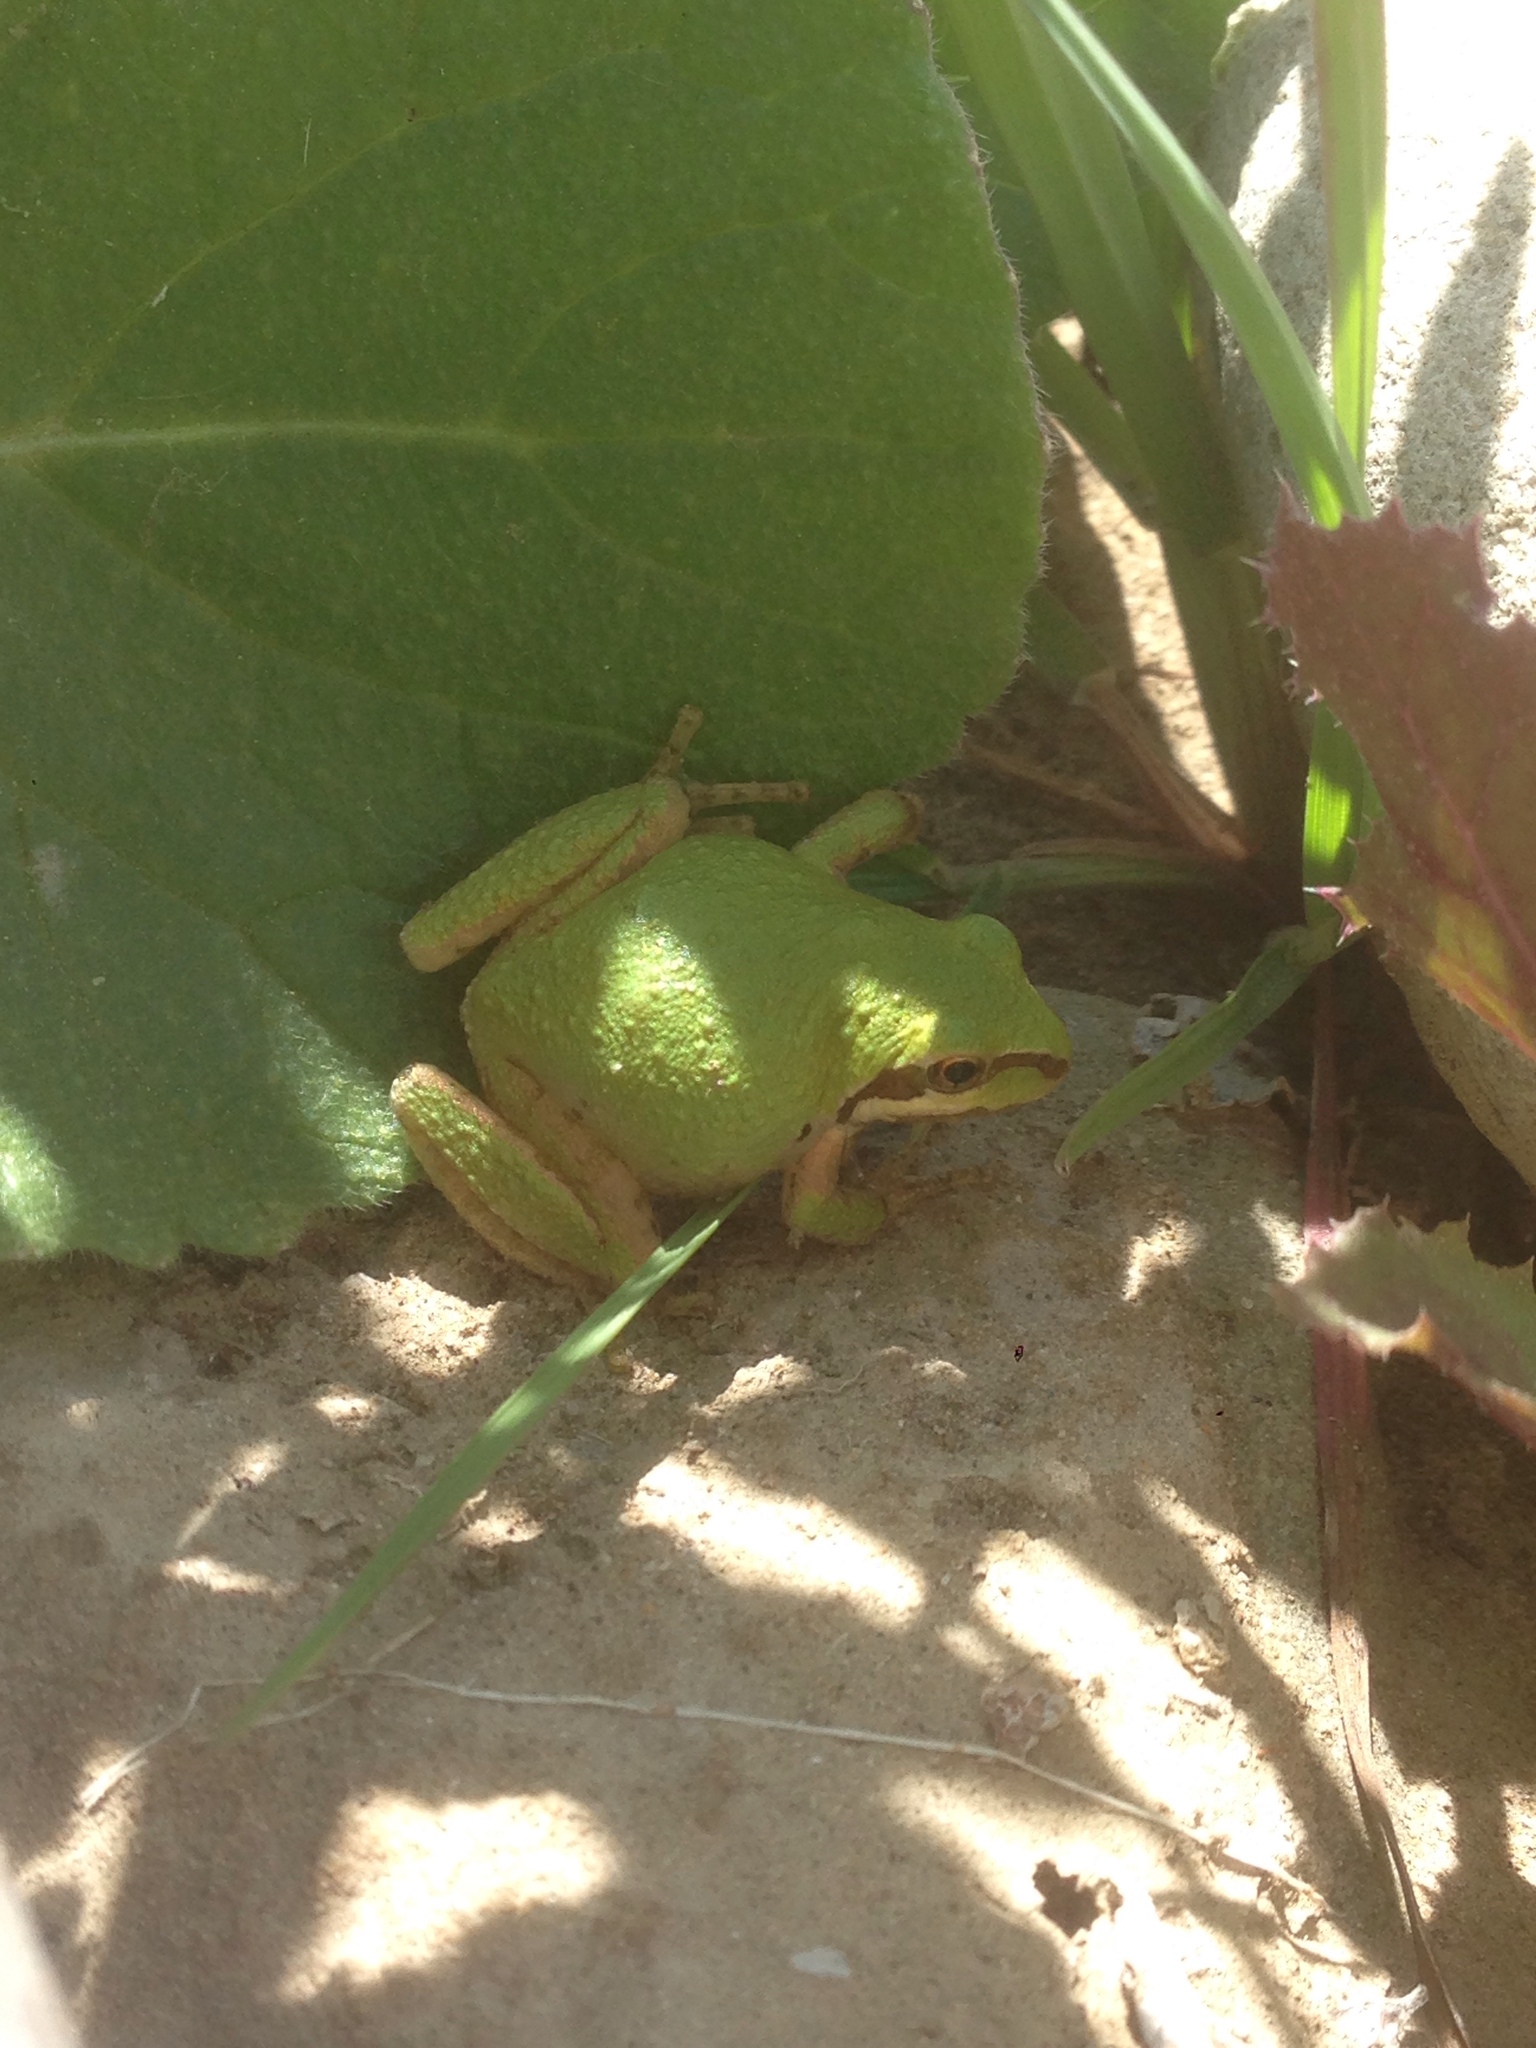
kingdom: Animalia
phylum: Chordata
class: Amphibia
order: Anura
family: Hylidae
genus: Pseudacris
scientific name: Pseudacris regilla
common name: Pacific chorus frog
